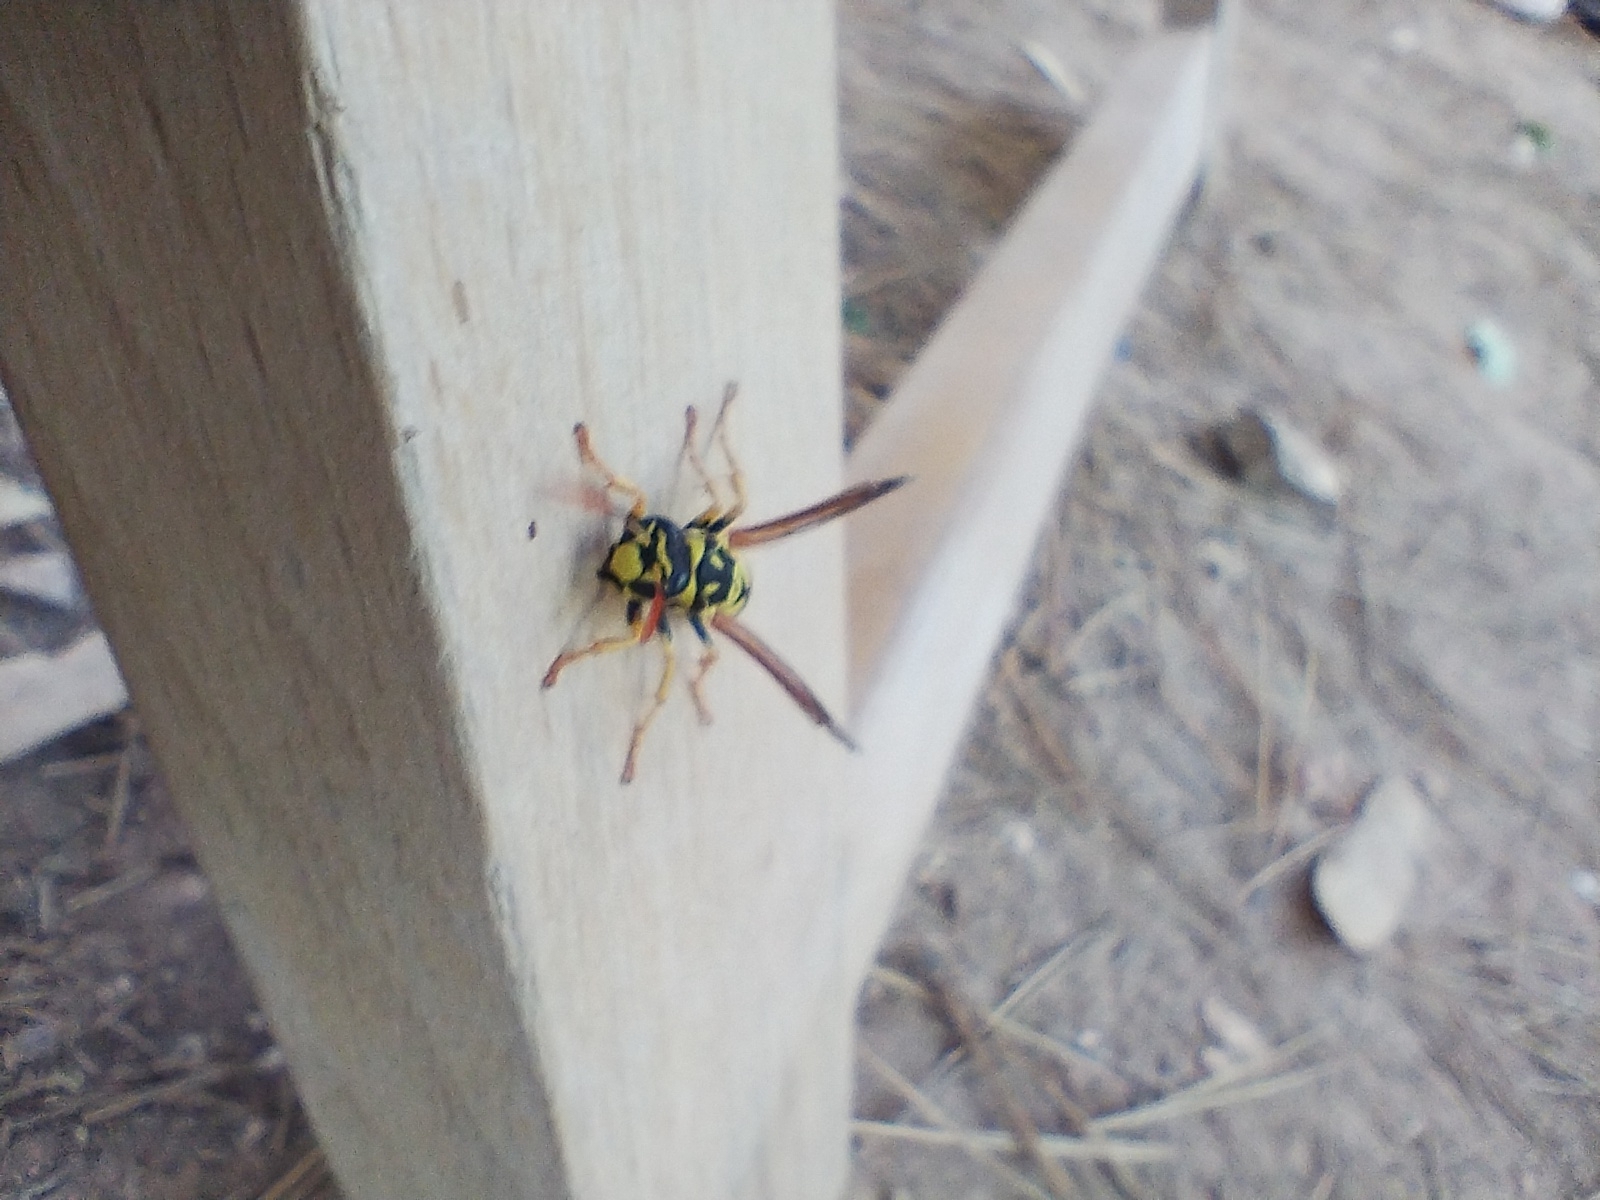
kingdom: Animalia
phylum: Arthropoda
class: Insecta
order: Hymenoptera
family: Eumenidae
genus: Polistes
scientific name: Polistes dominula
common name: Paper wasp
